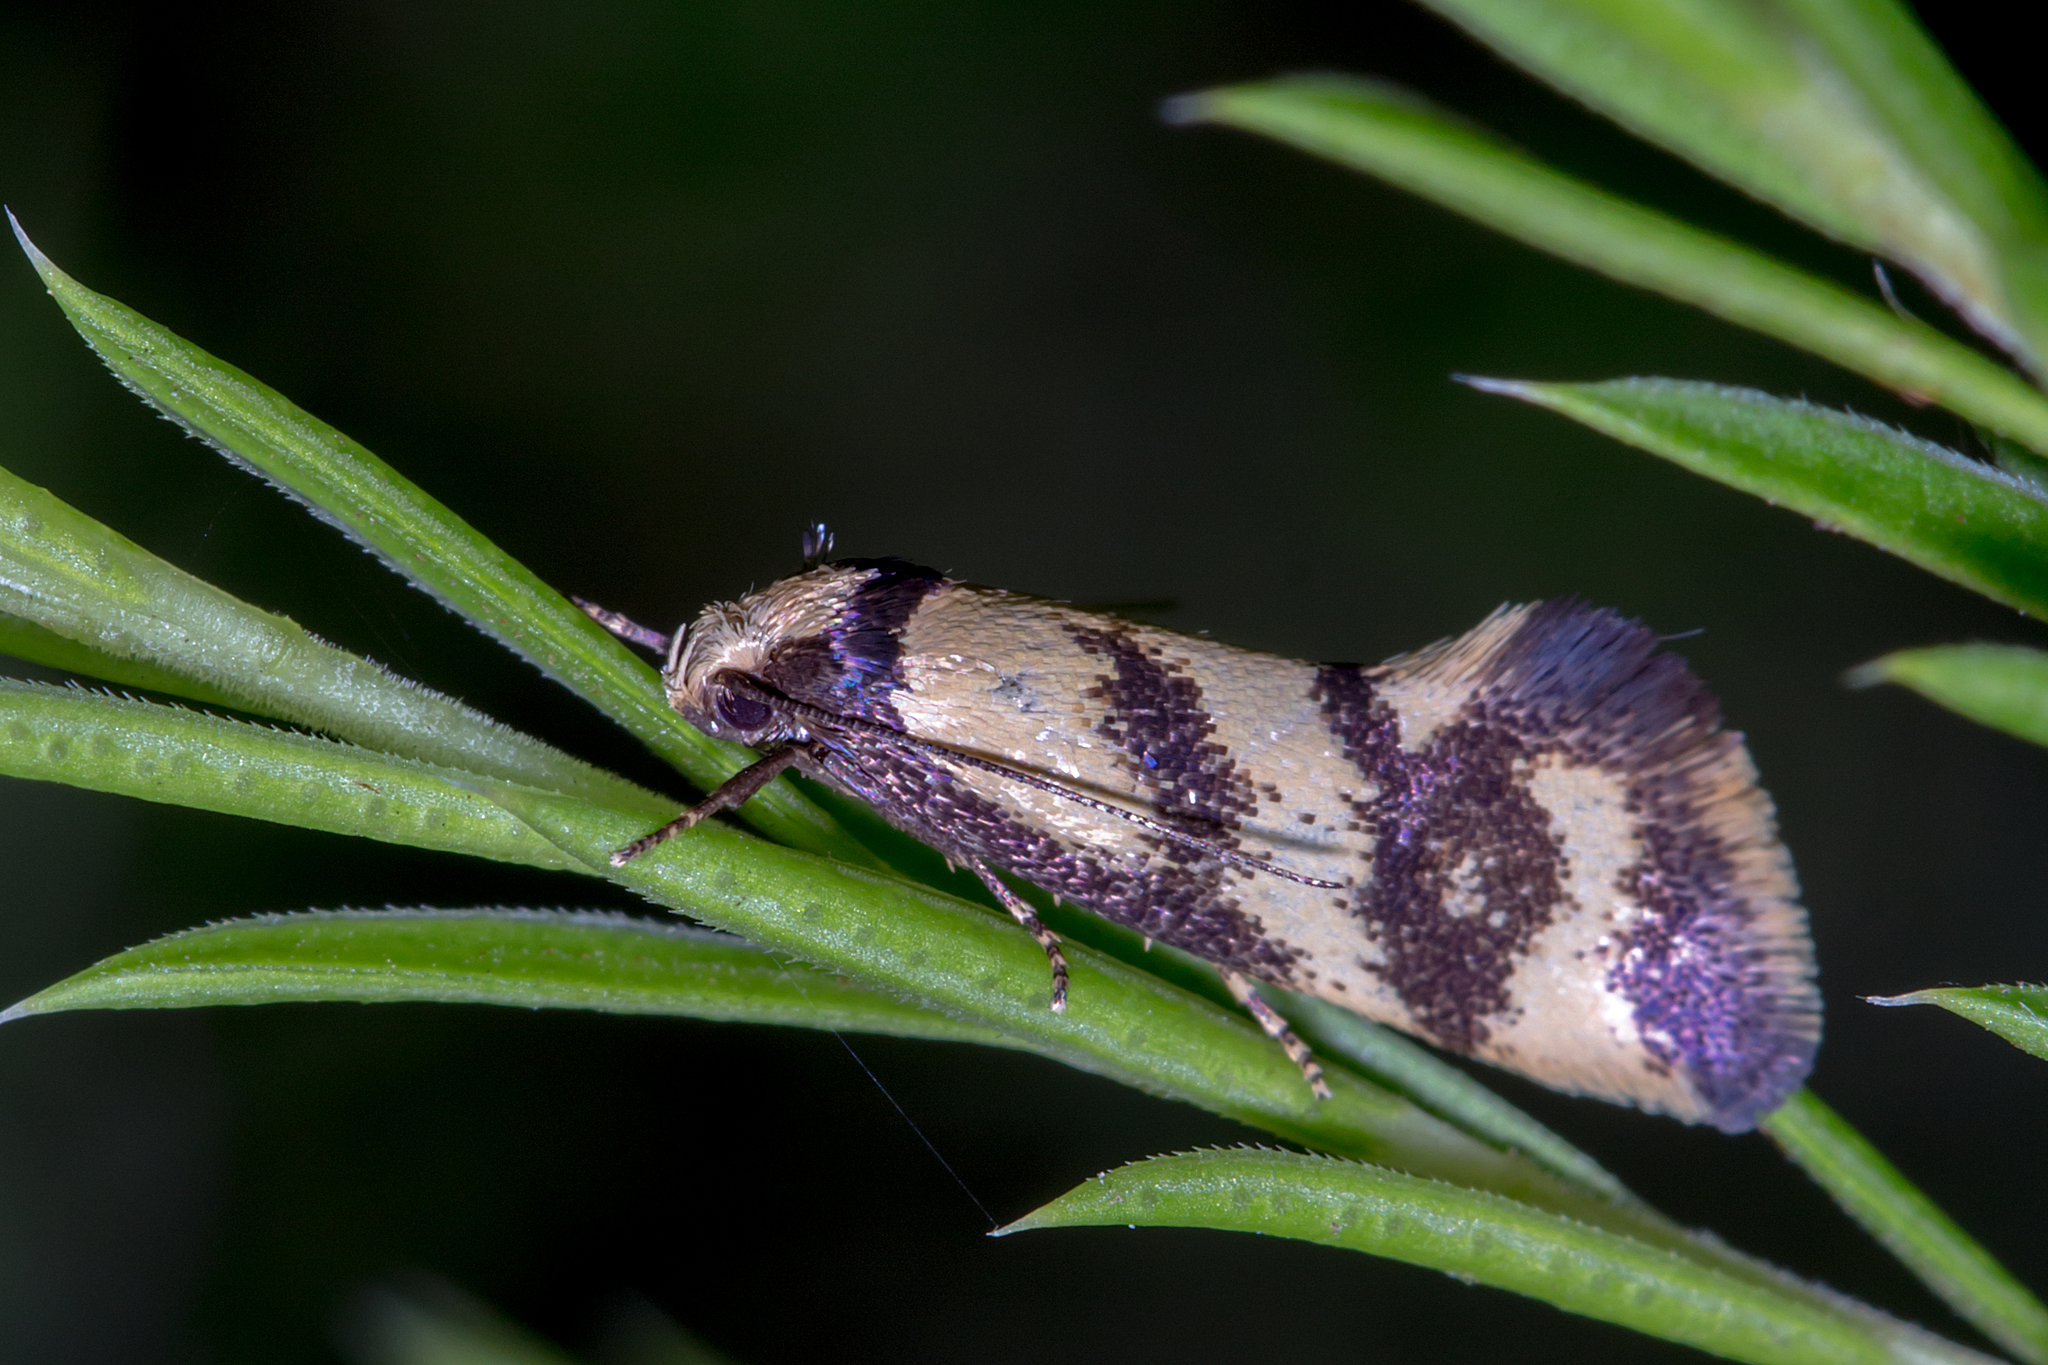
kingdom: Animalia
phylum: Arthropoda
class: Insecta
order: Lepidoptera
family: Oecophoridae
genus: Olbonoma
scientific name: Olbonoma triptycha
